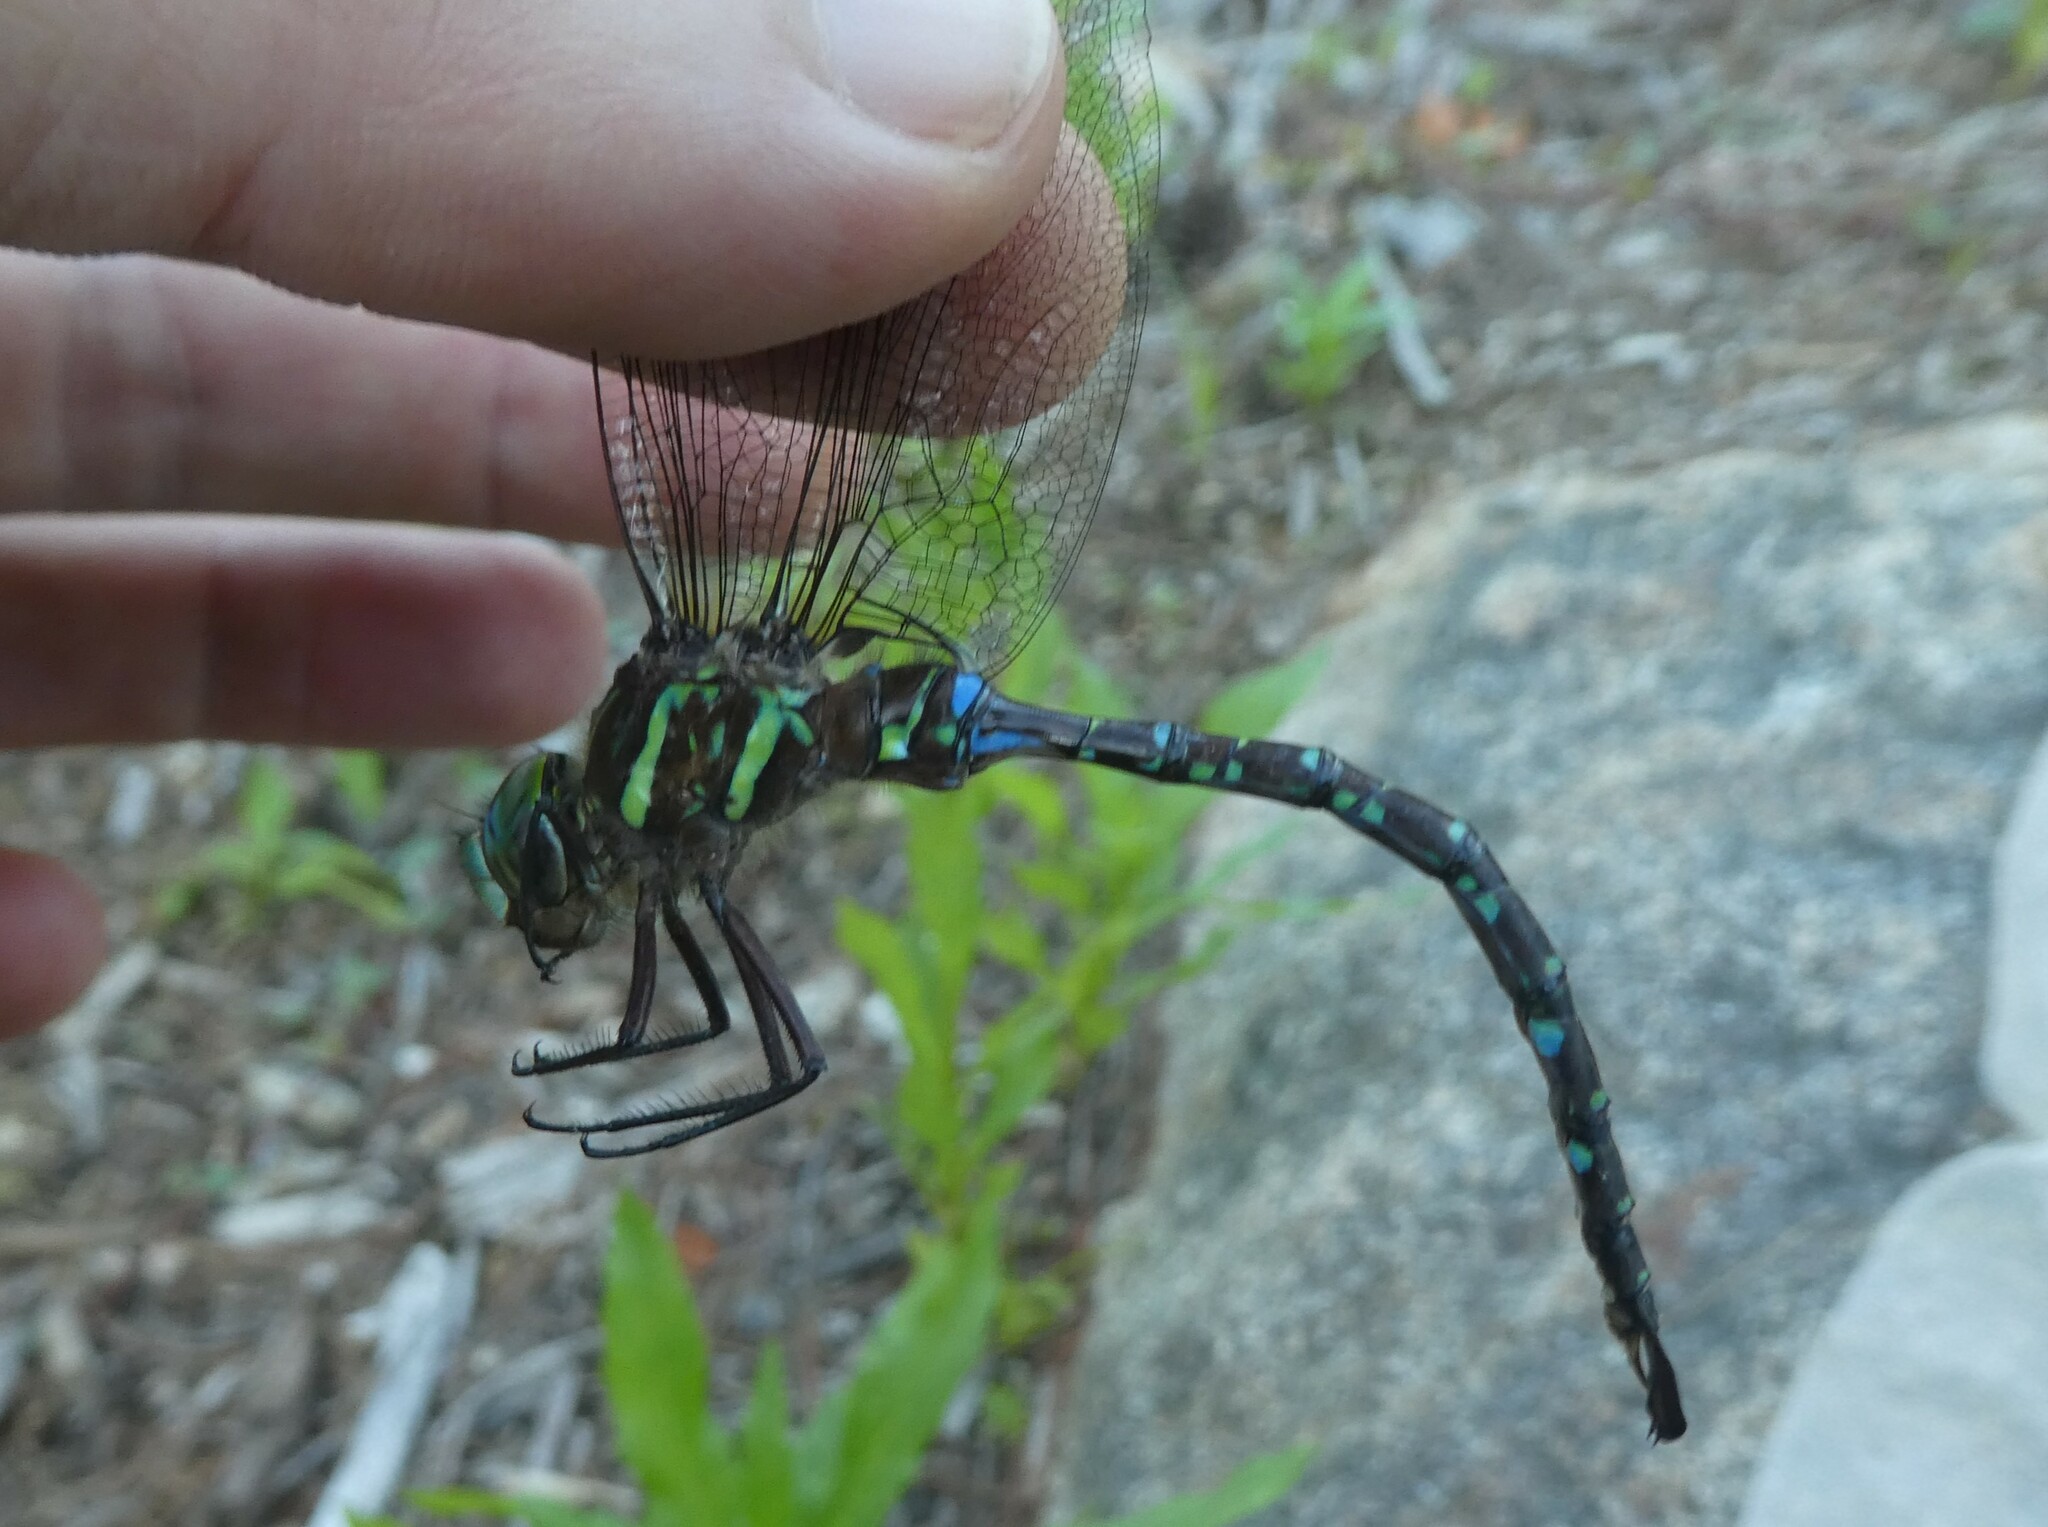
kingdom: Animalia
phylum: Arthropoda
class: Insecta
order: Odonata
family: Aeshnidae
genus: Aeshna
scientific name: Aeshna umbrosa
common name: Shadow darner
